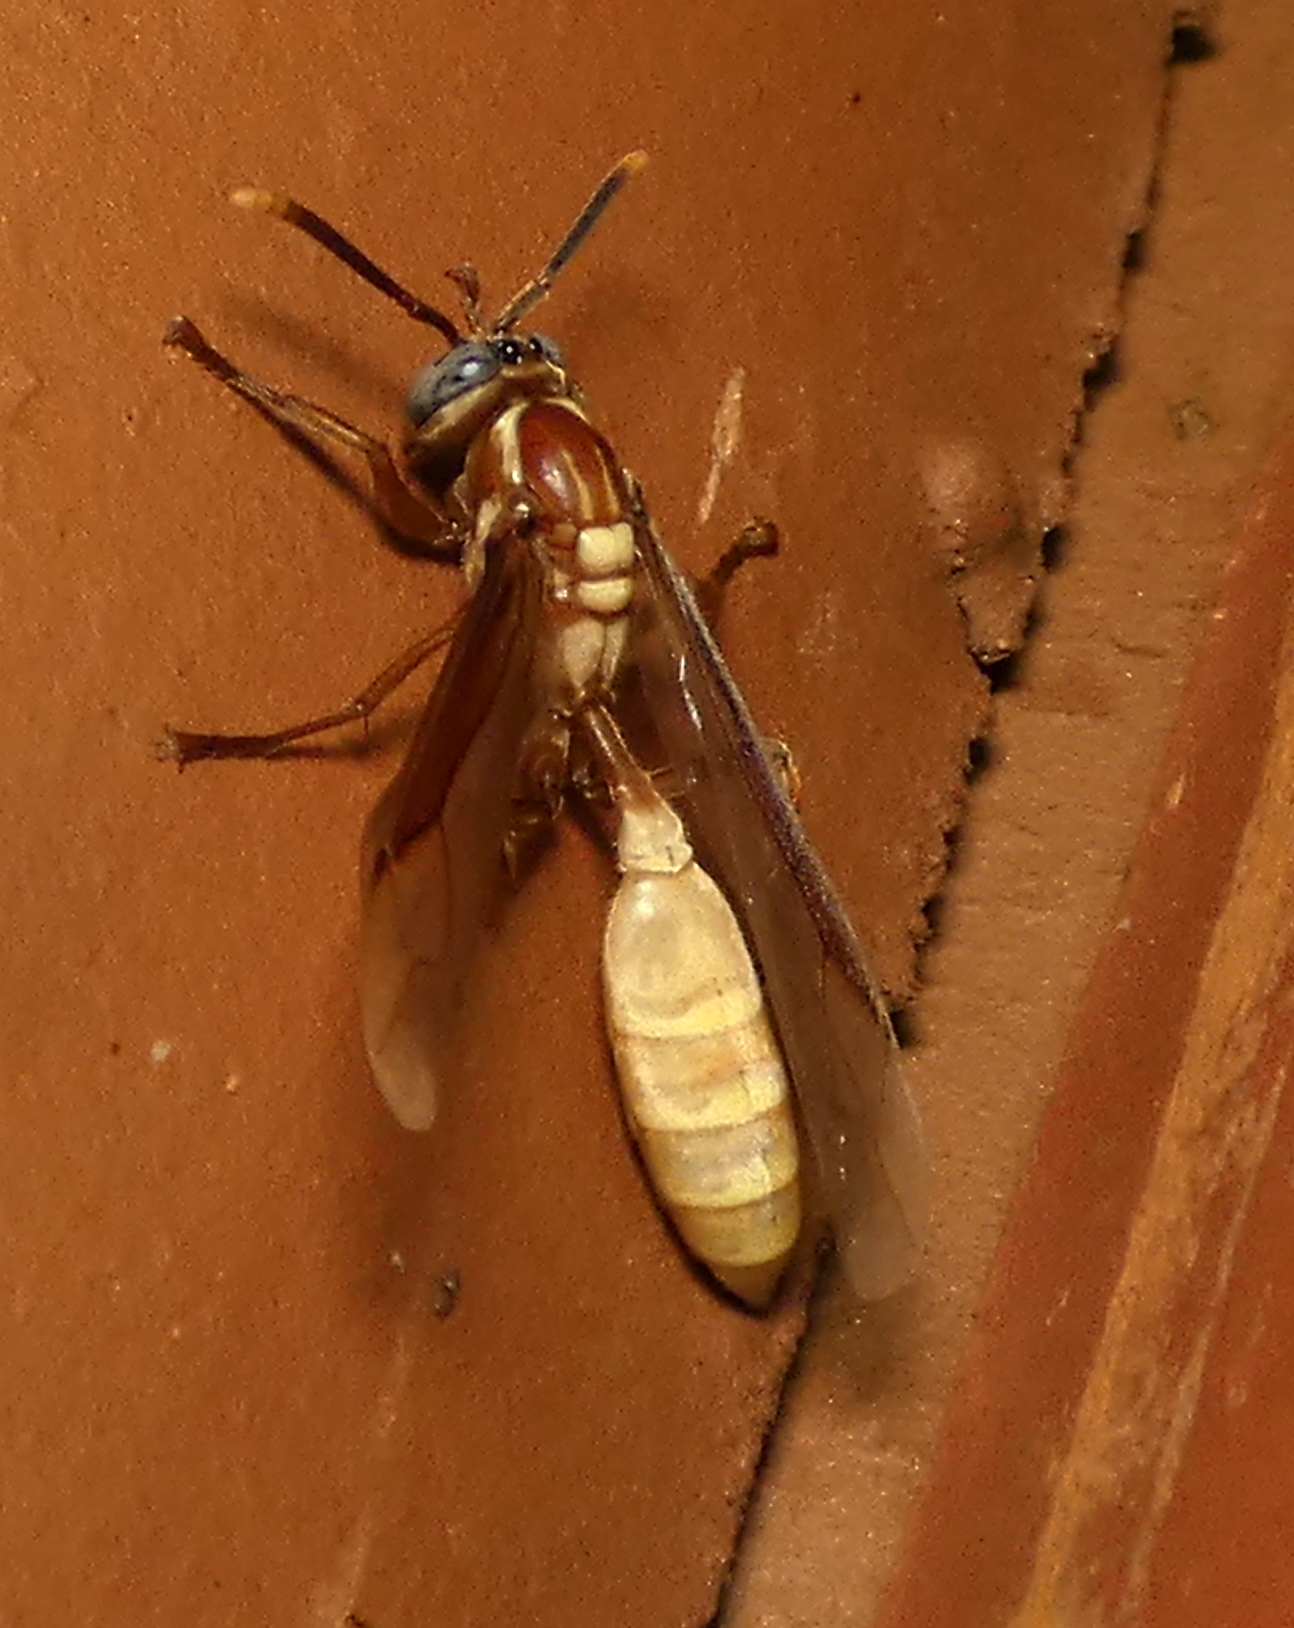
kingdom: Animalia
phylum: Arthropoda
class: Insecta
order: Hymenoptera
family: Vespidae
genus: Apoica
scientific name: Apoica flavissima
